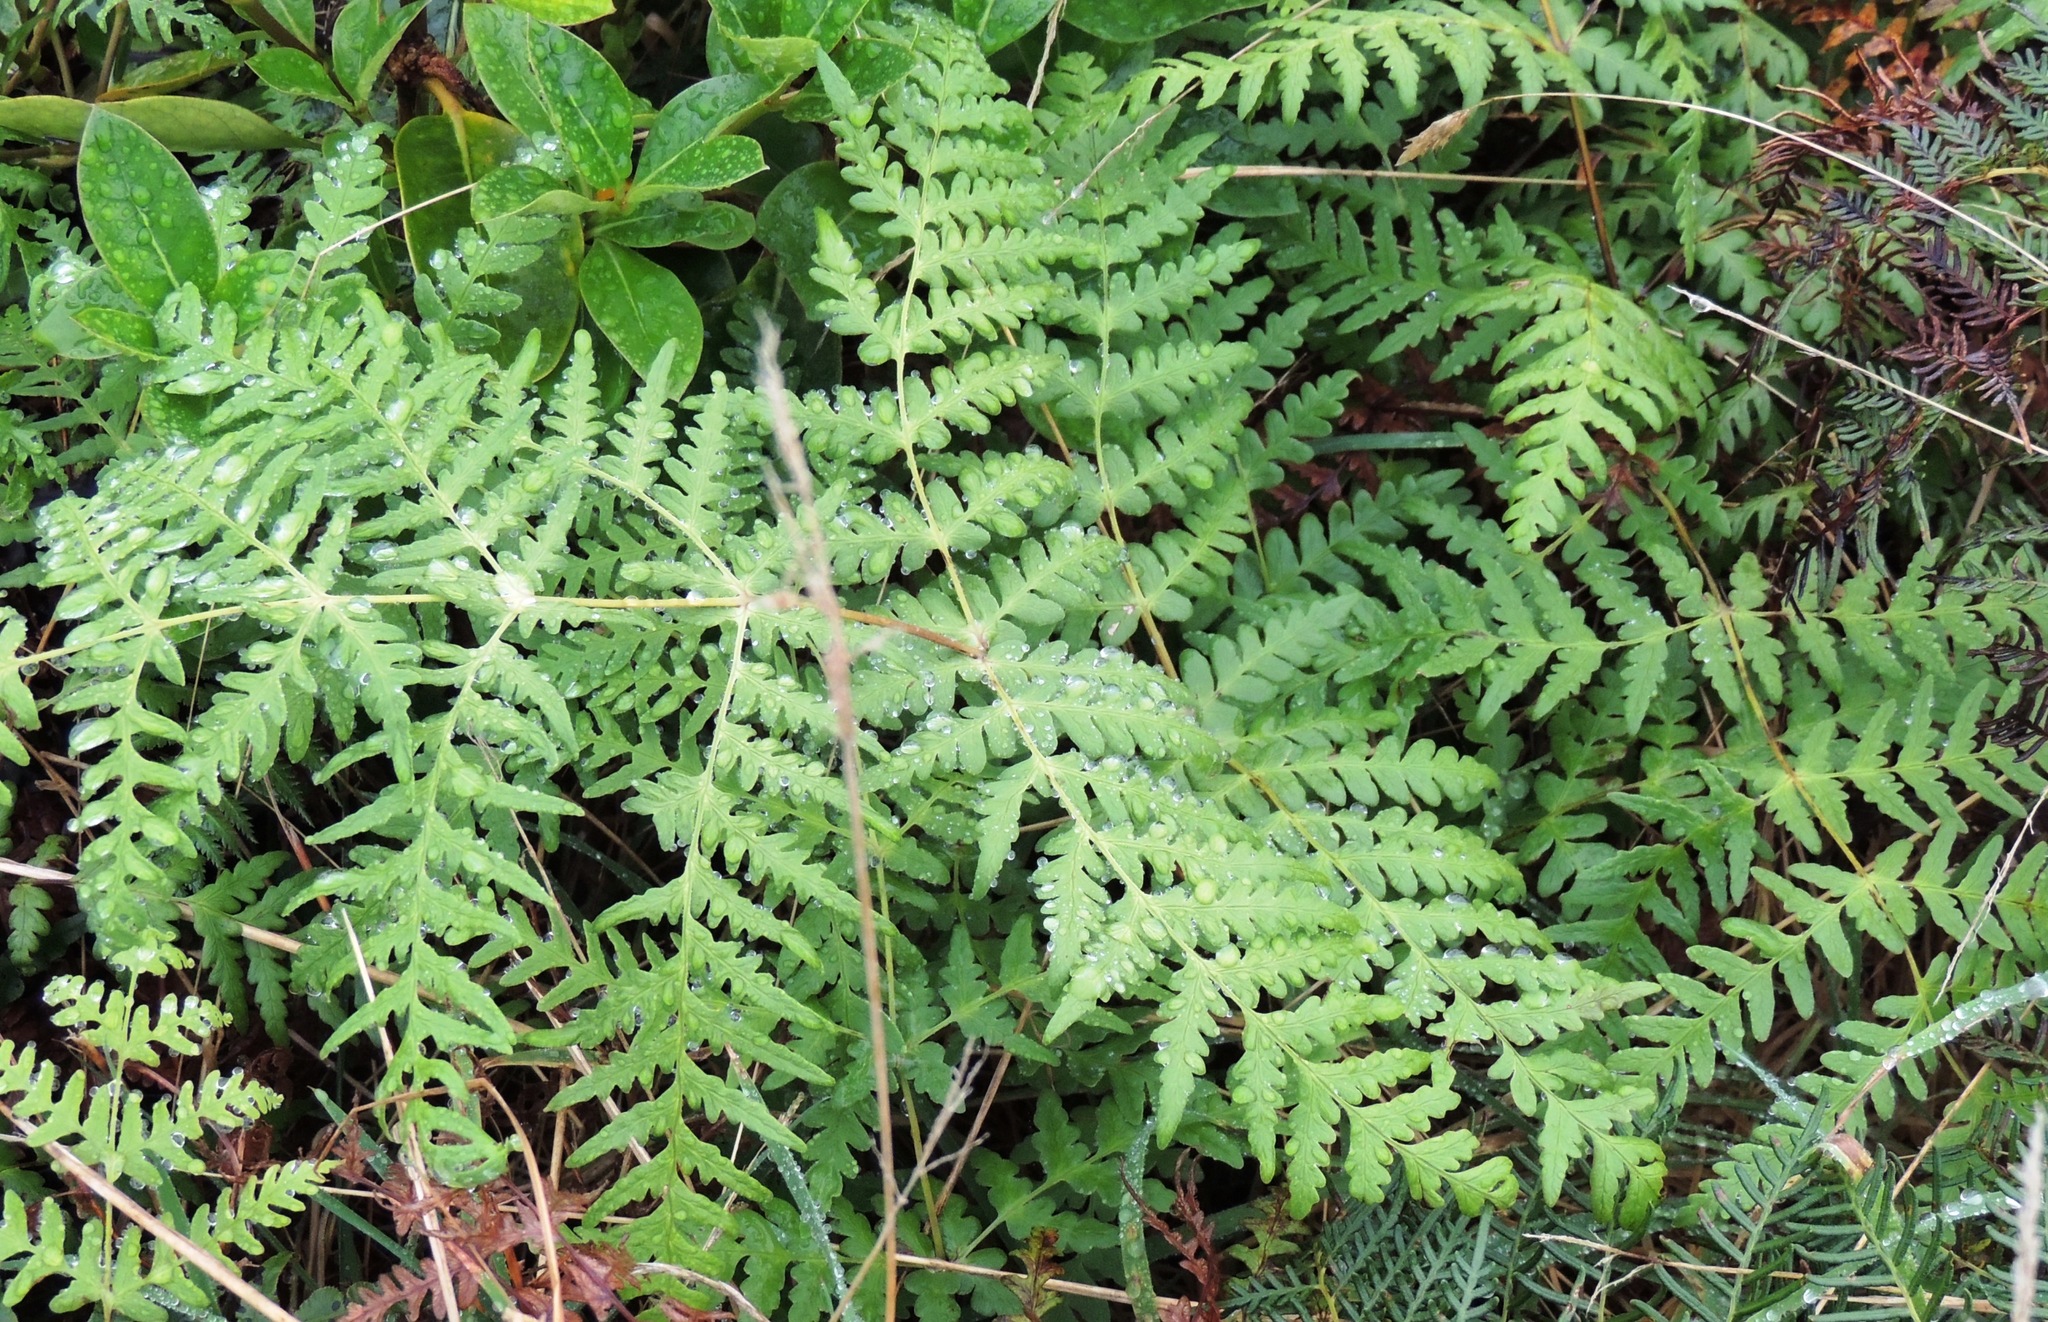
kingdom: Plantae
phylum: Tracheophyta
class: Polypodiopsida
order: Polypodiales
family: Dennstaedtiaceae
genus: Histiopteris
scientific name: Histiopteris incisa
